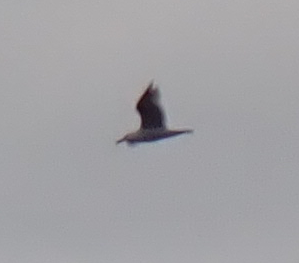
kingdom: Animalia
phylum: Chordata
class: Aves
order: Charadriiformes
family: Laridae
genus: Larus
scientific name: Larus argentatus
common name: Herring gull
